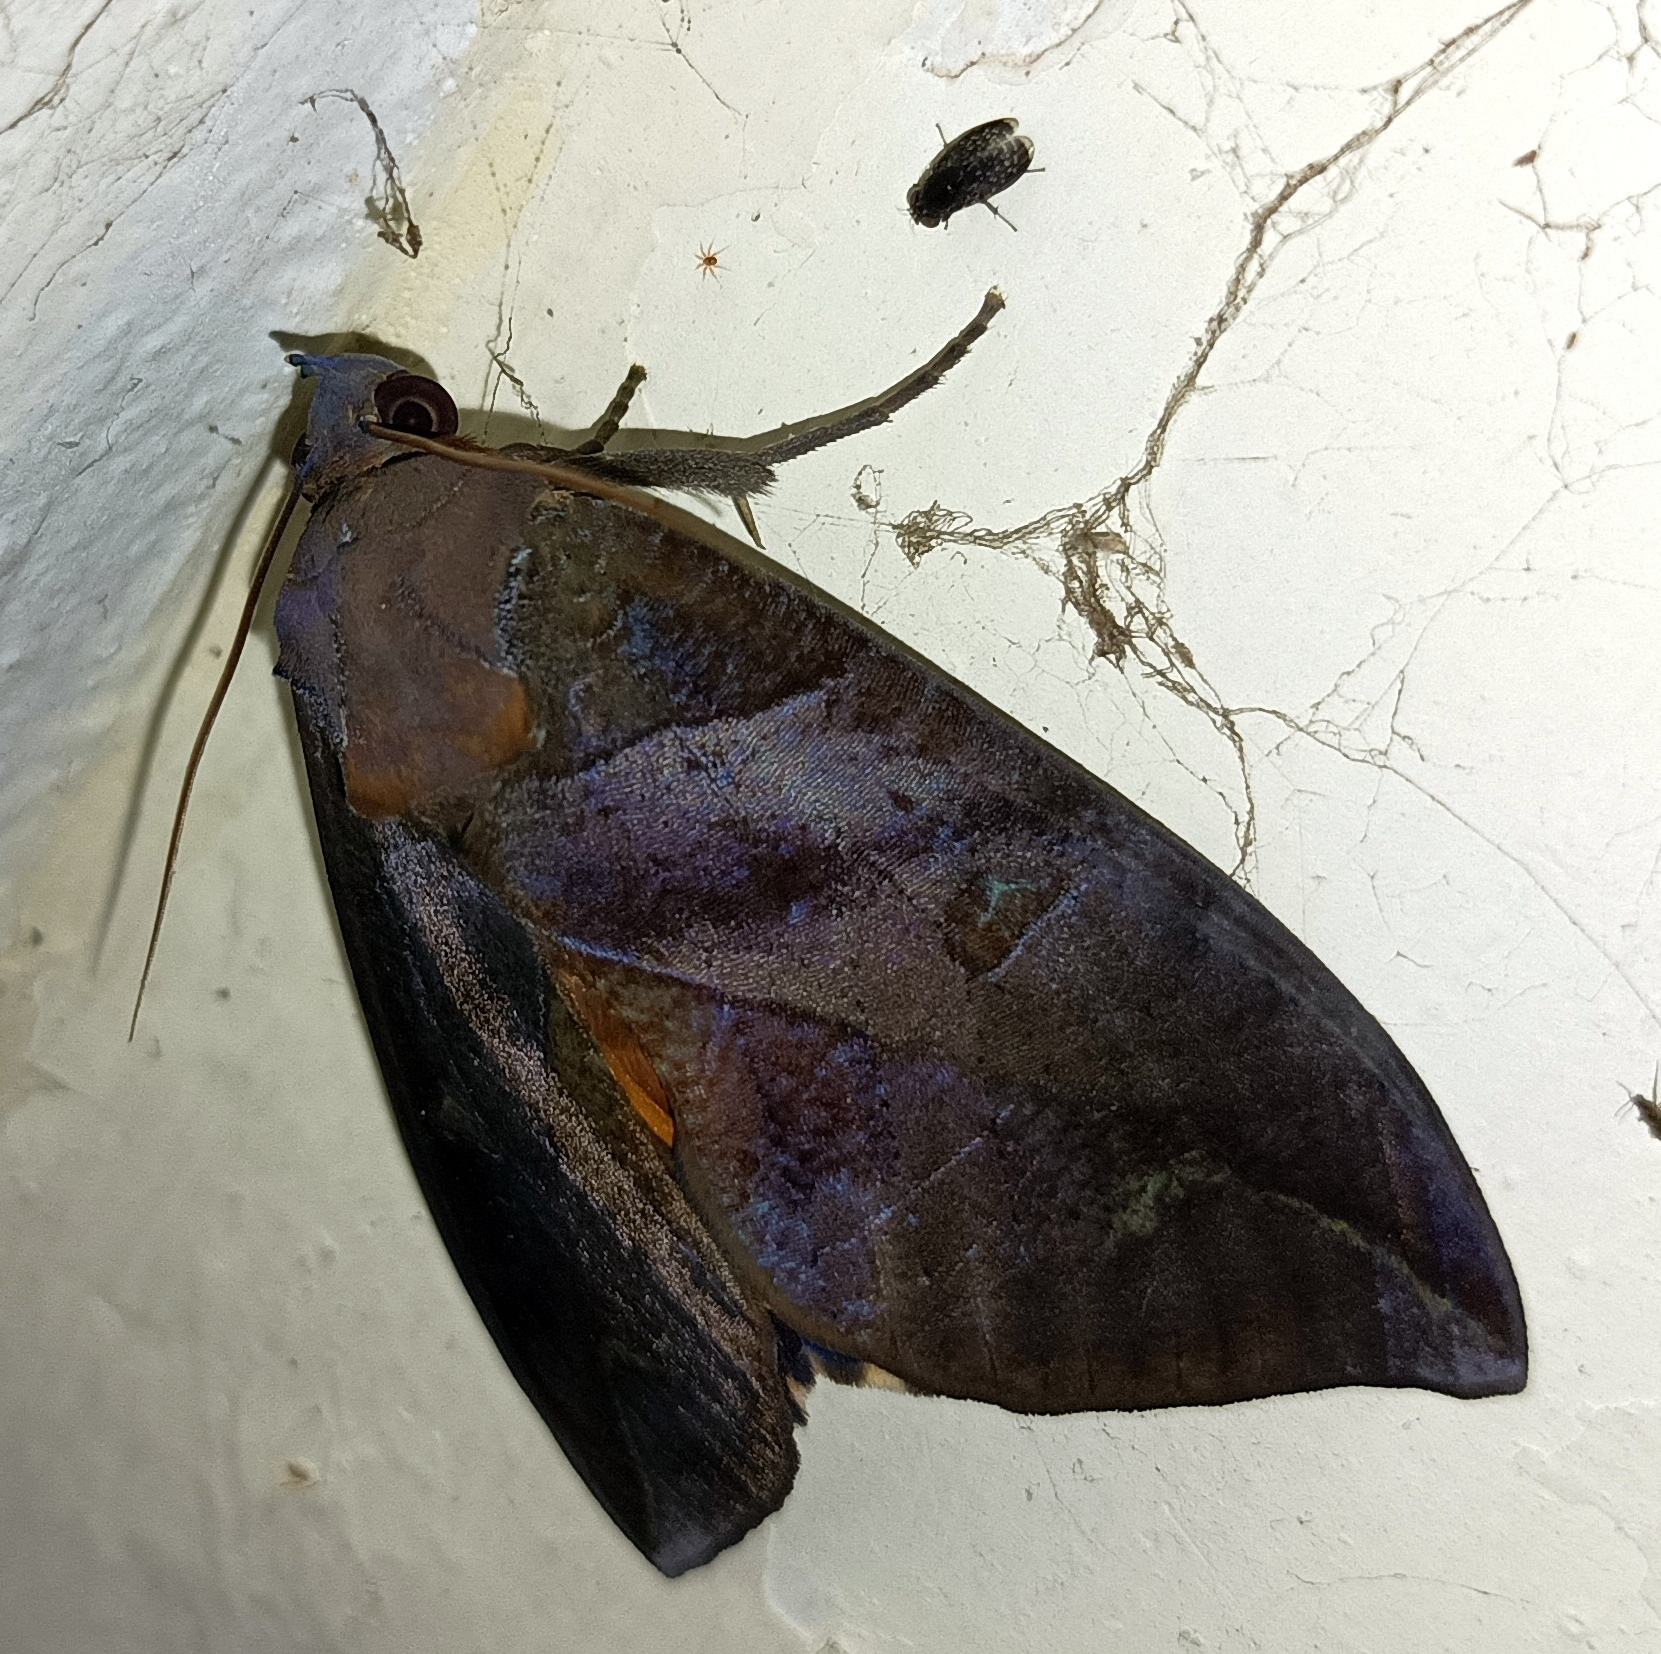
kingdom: Animalia
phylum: Arthropoda
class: Insecta
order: Lepidoptera
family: Erebidae
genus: Eudocima
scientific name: Eudocima phalonia
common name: Wasp
